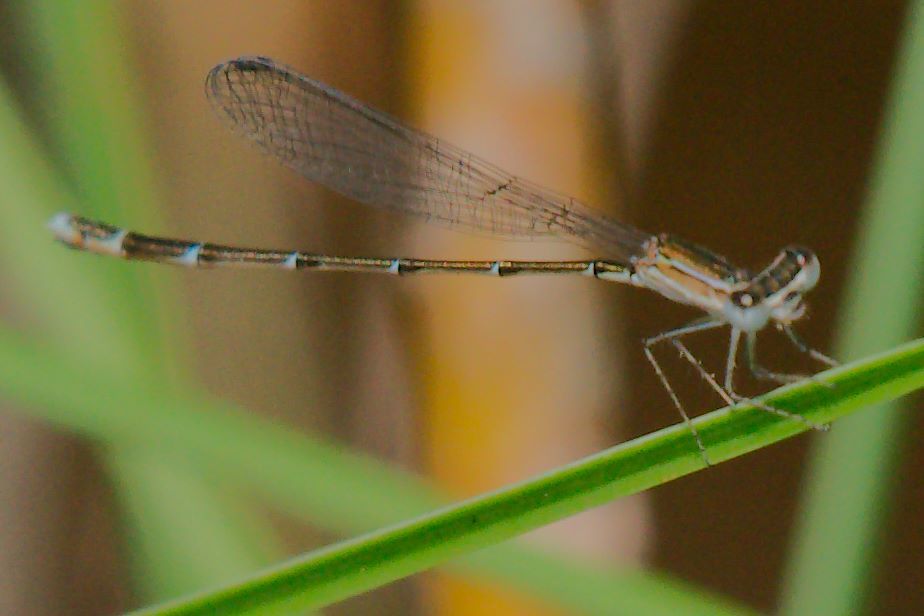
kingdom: Animalia
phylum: Arthropoda
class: Insecta
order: Odonata
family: Coenagrionidae
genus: Nehalennia
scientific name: Nehalennia pallidula
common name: Everglades sprite
